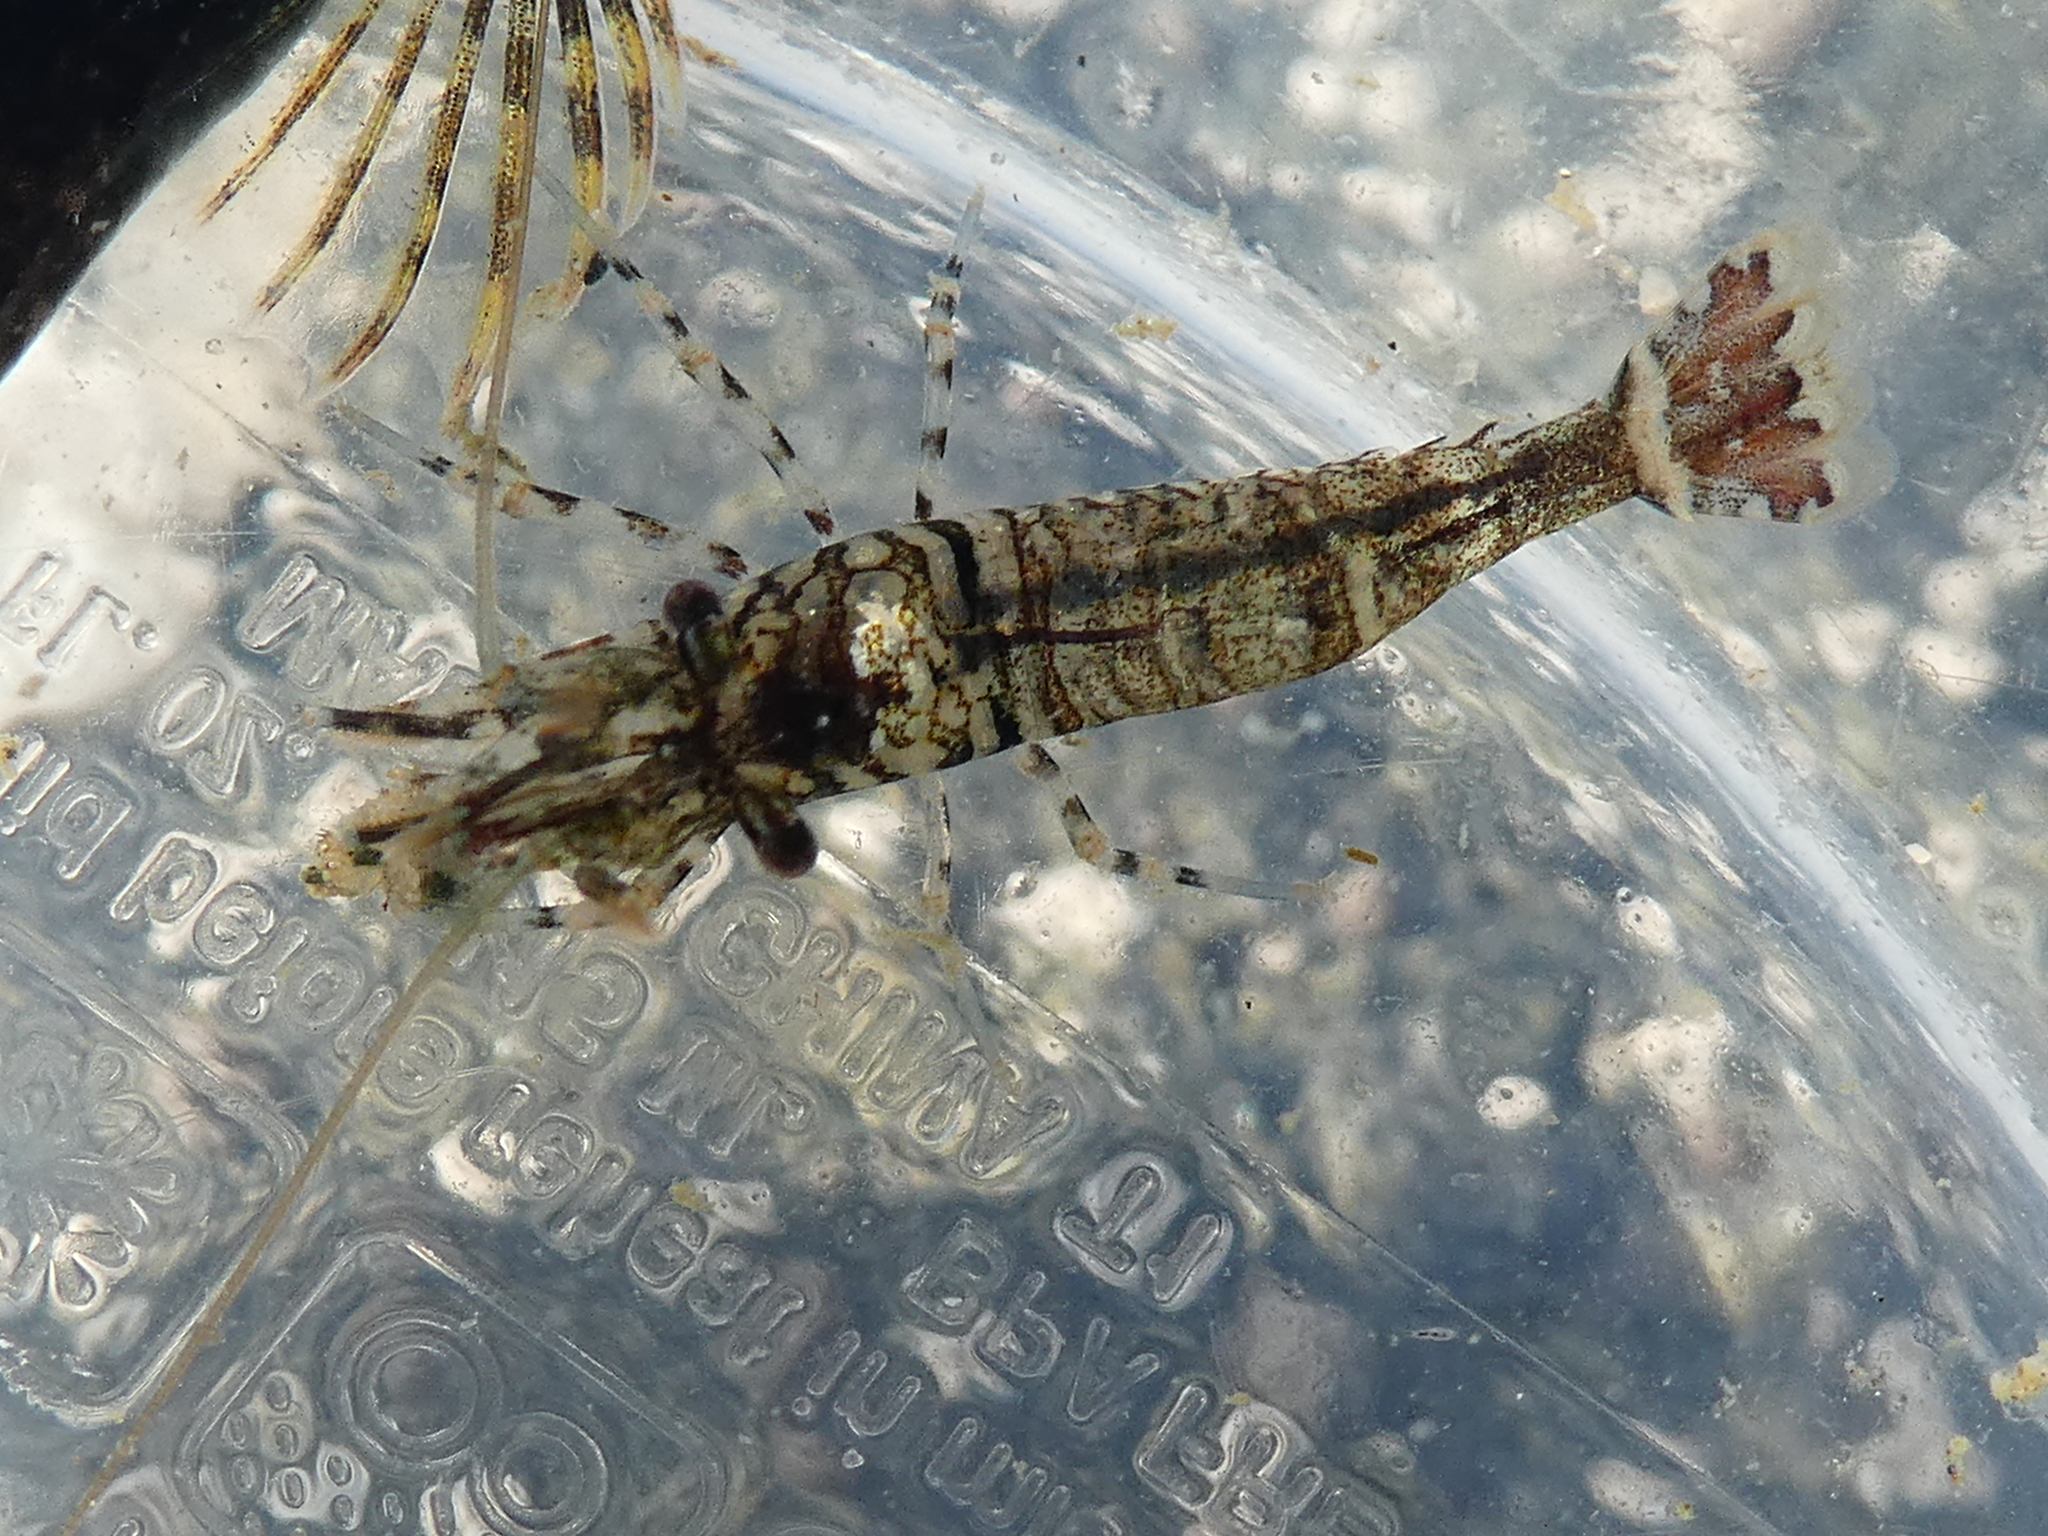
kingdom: Animalia
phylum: Arthropoda
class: Malacostraca
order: Decapoda
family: Thoridae
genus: Heptacarpus
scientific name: Heptacarpus sitchensis
